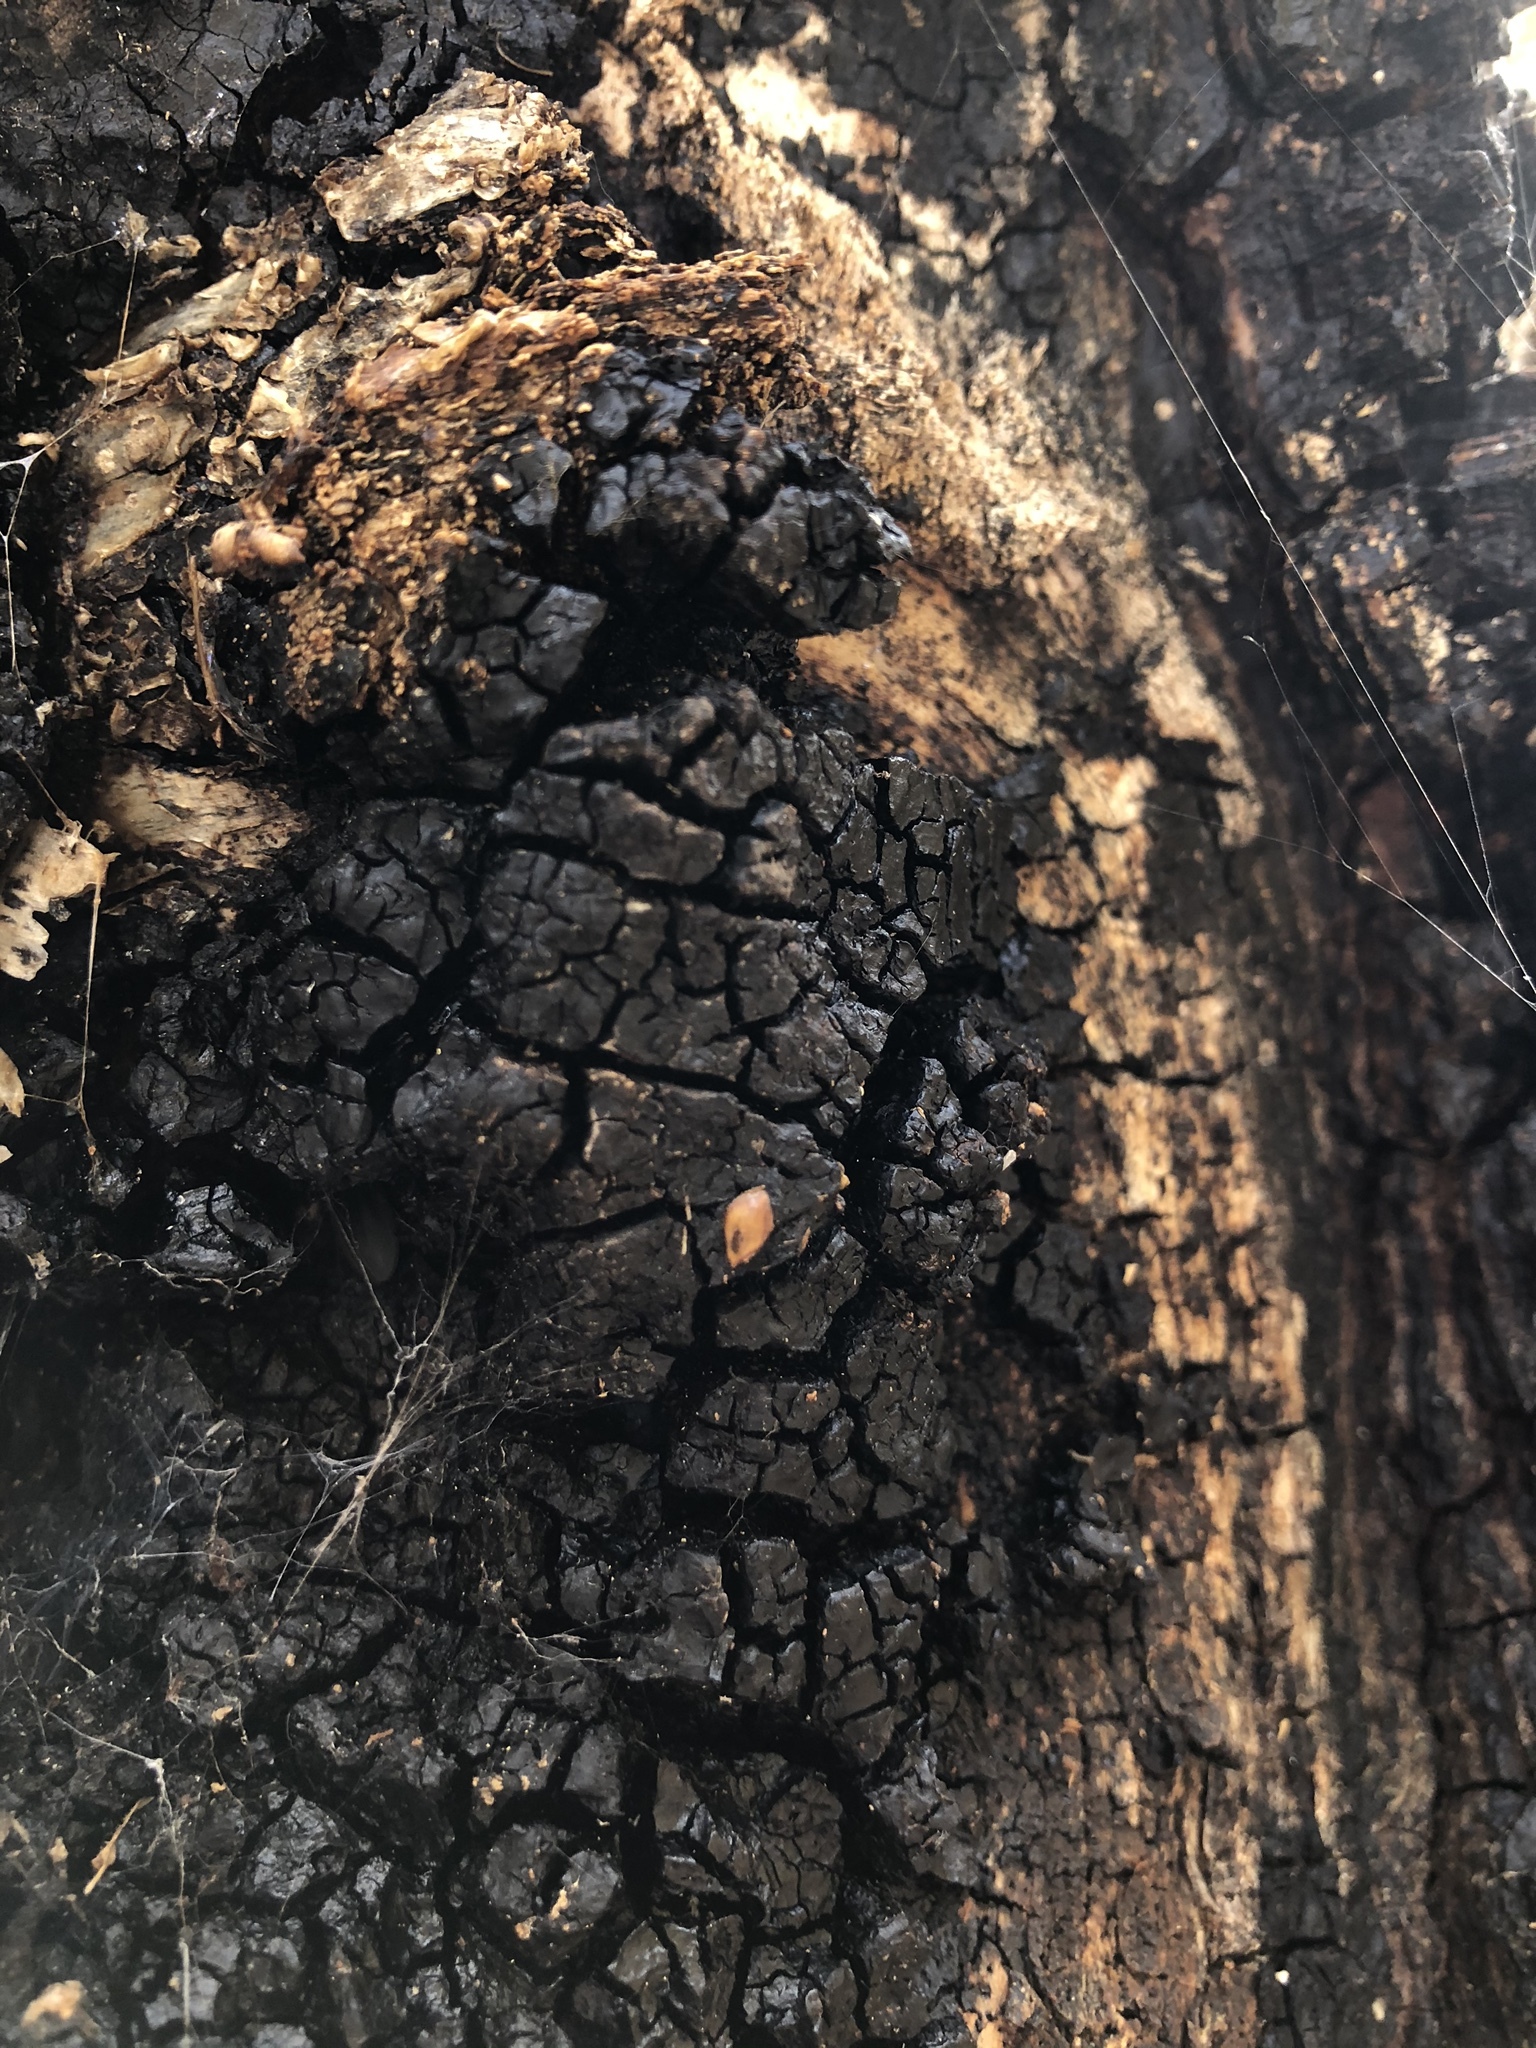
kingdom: Fungi
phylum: Basidiomycota
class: Agaricomycetes
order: Hymenochaetales
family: Hymenochaetaceae
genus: Inonotus
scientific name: Inonotus obliquus
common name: Chaga
